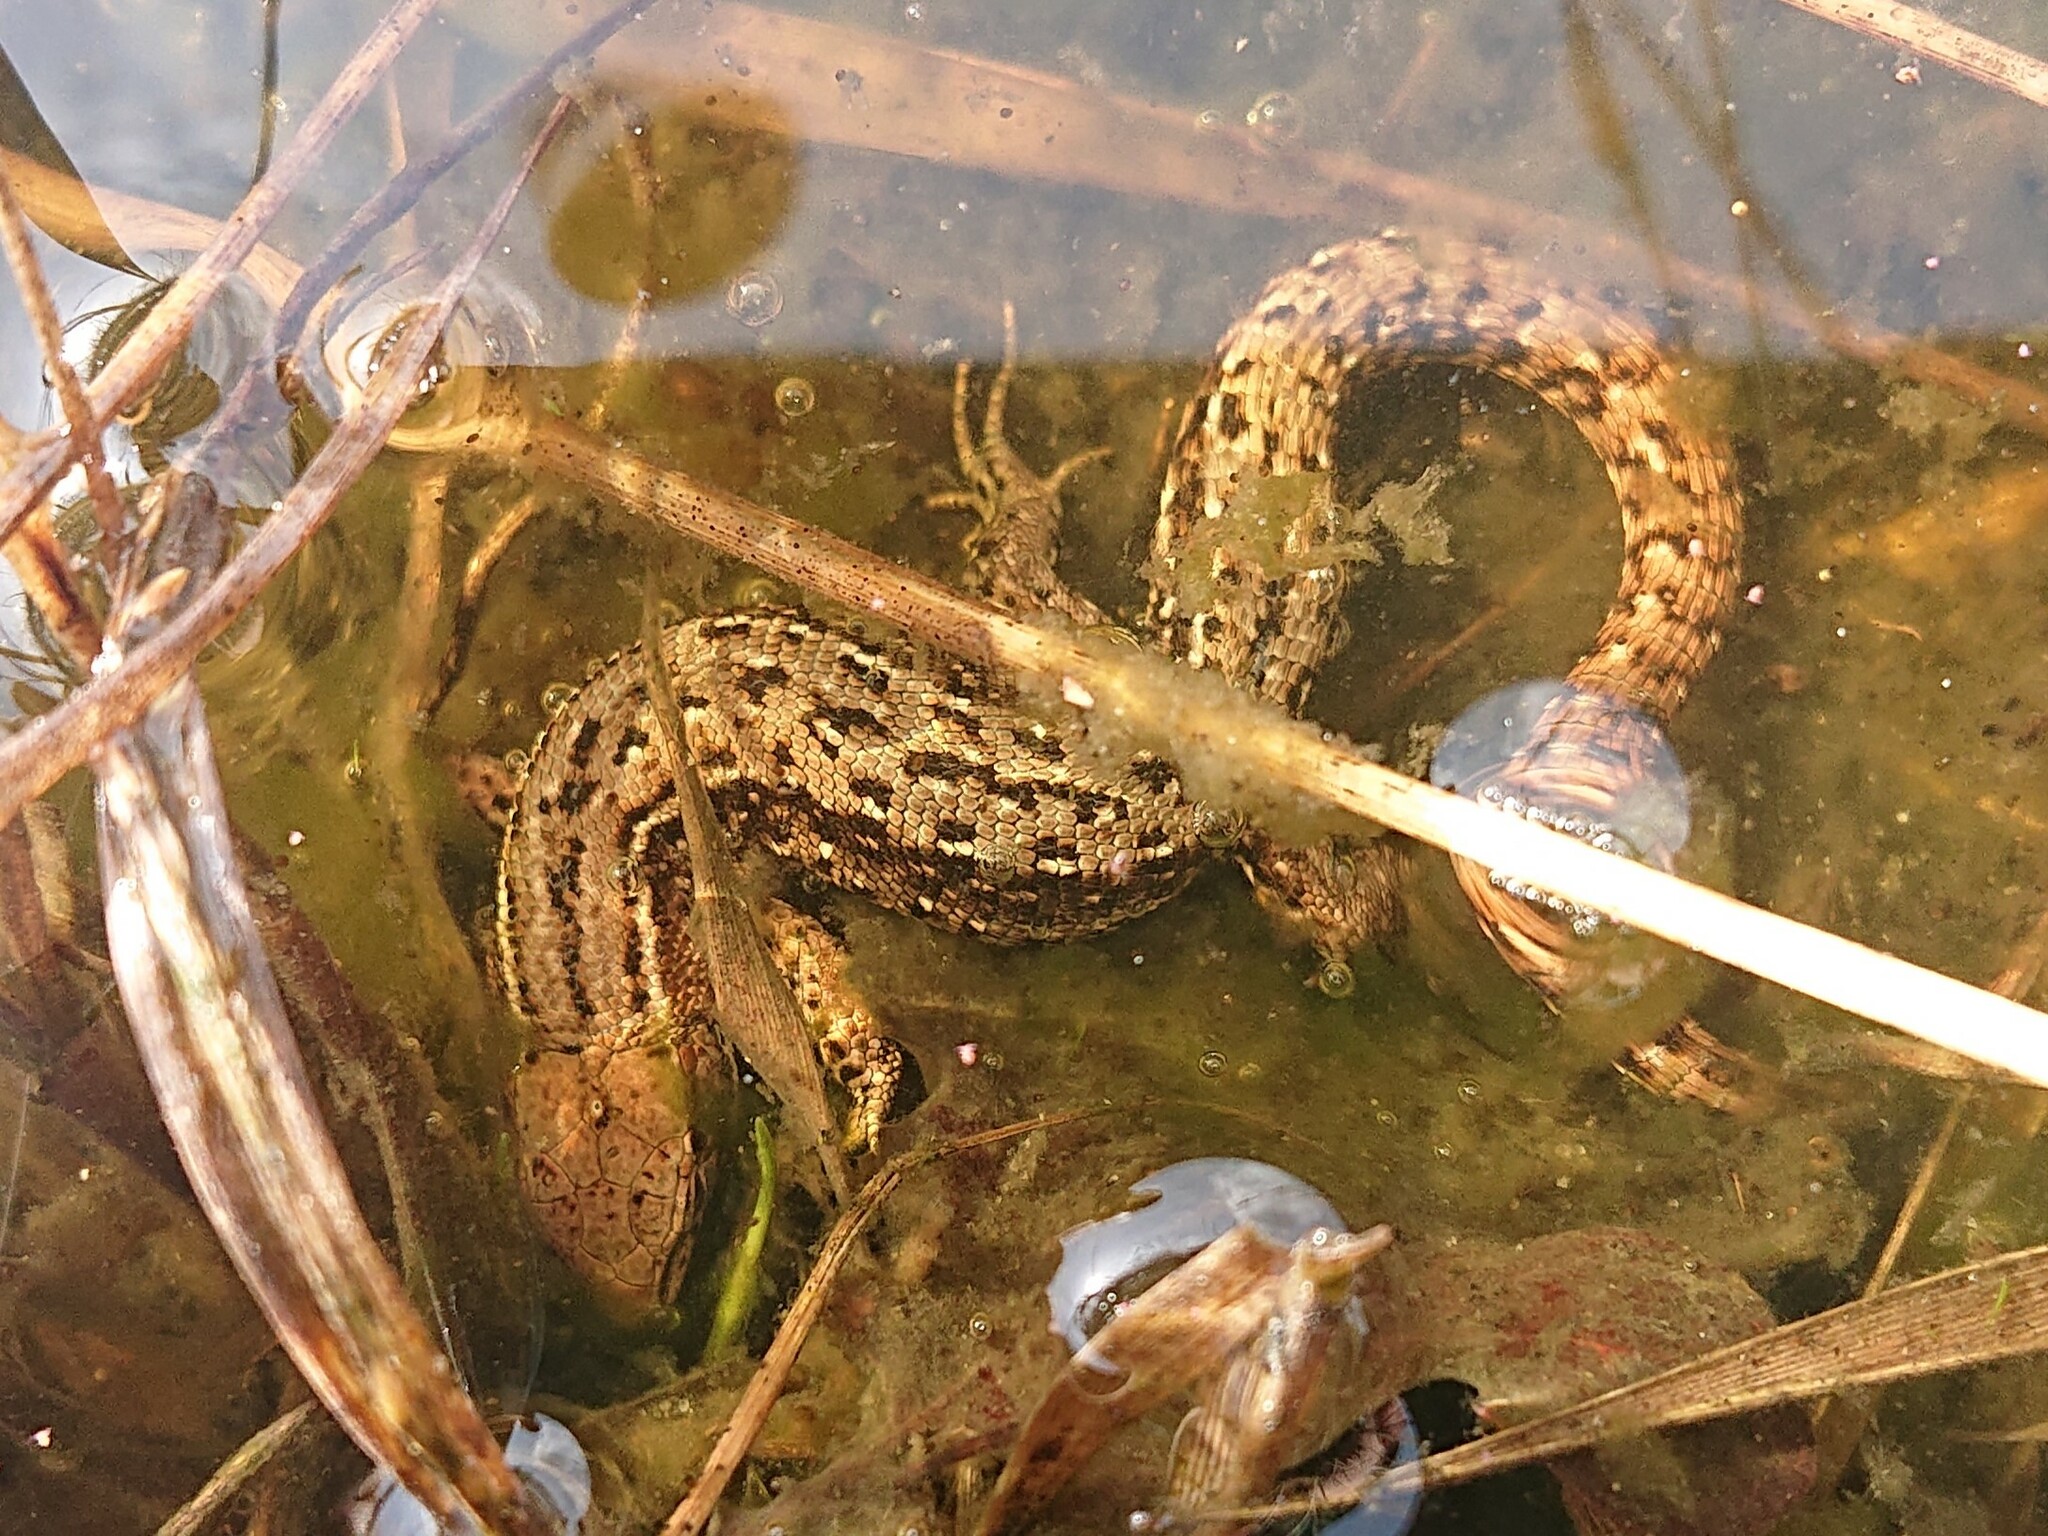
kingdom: Animalia
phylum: Chordata
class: Squamata
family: Lacertidae
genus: Zootoca
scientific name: Zootoca vivipara
